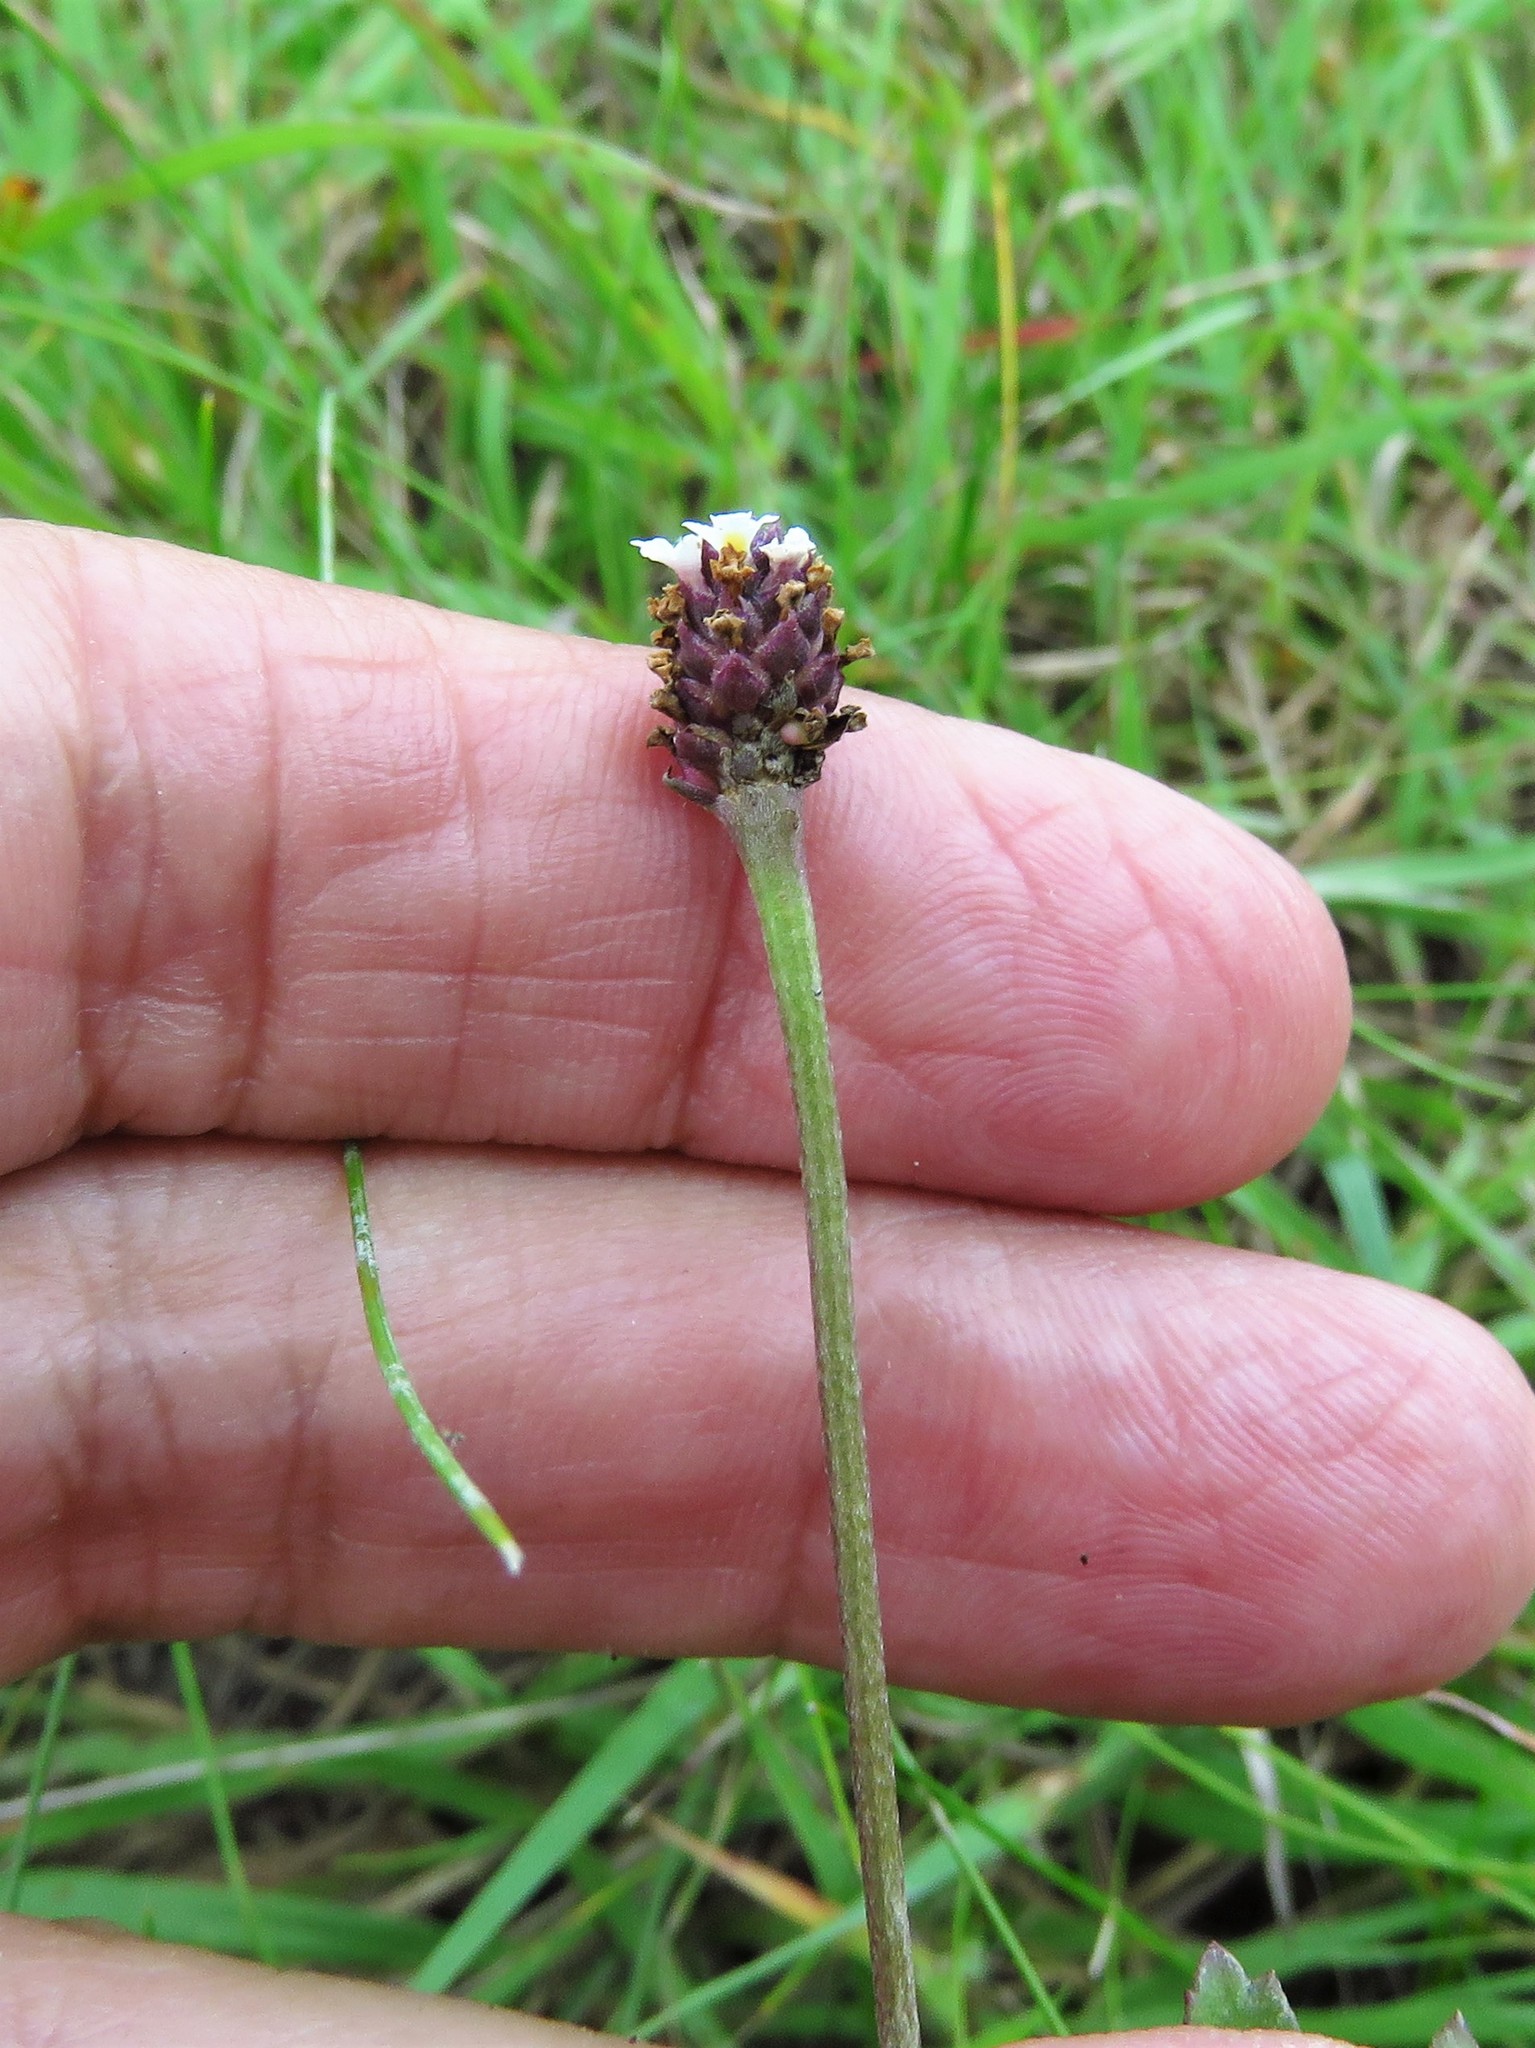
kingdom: Plantae
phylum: Tracheophyta
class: Magnoliopsida
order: Lamiales
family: Verbenaceae
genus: Phyla
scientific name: Phyla nodiflora
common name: Frogfruit
